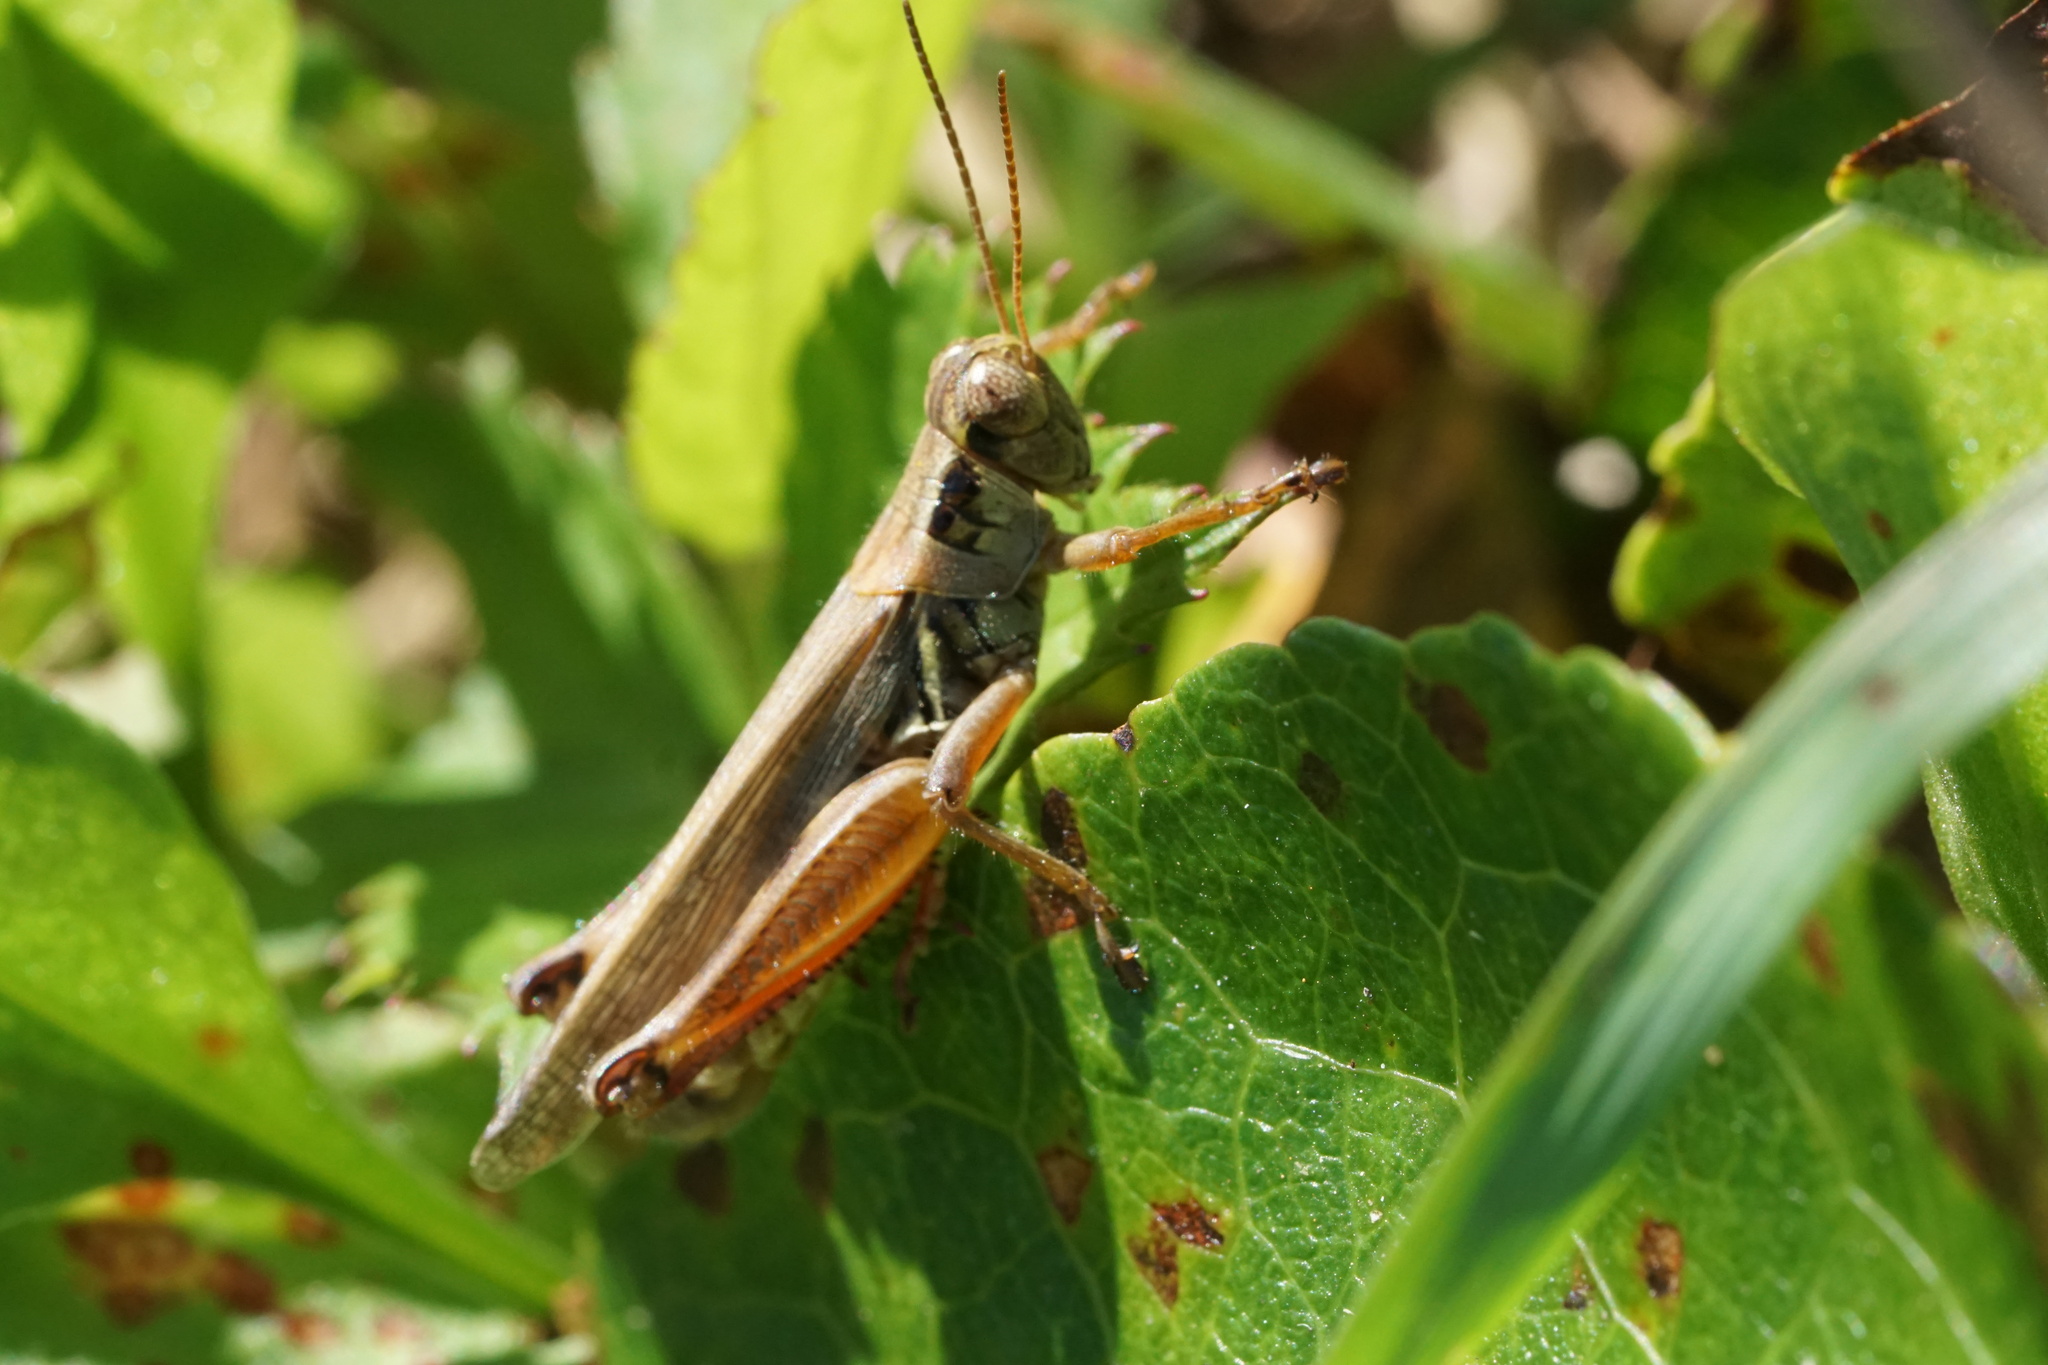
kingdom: Animalia
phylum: Arthropoda
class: Insecta
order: Orthoptera
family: Acrididae
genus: Melanoplus
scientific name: Melanoplus femurrubrum
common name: Red-legged grasshopper
